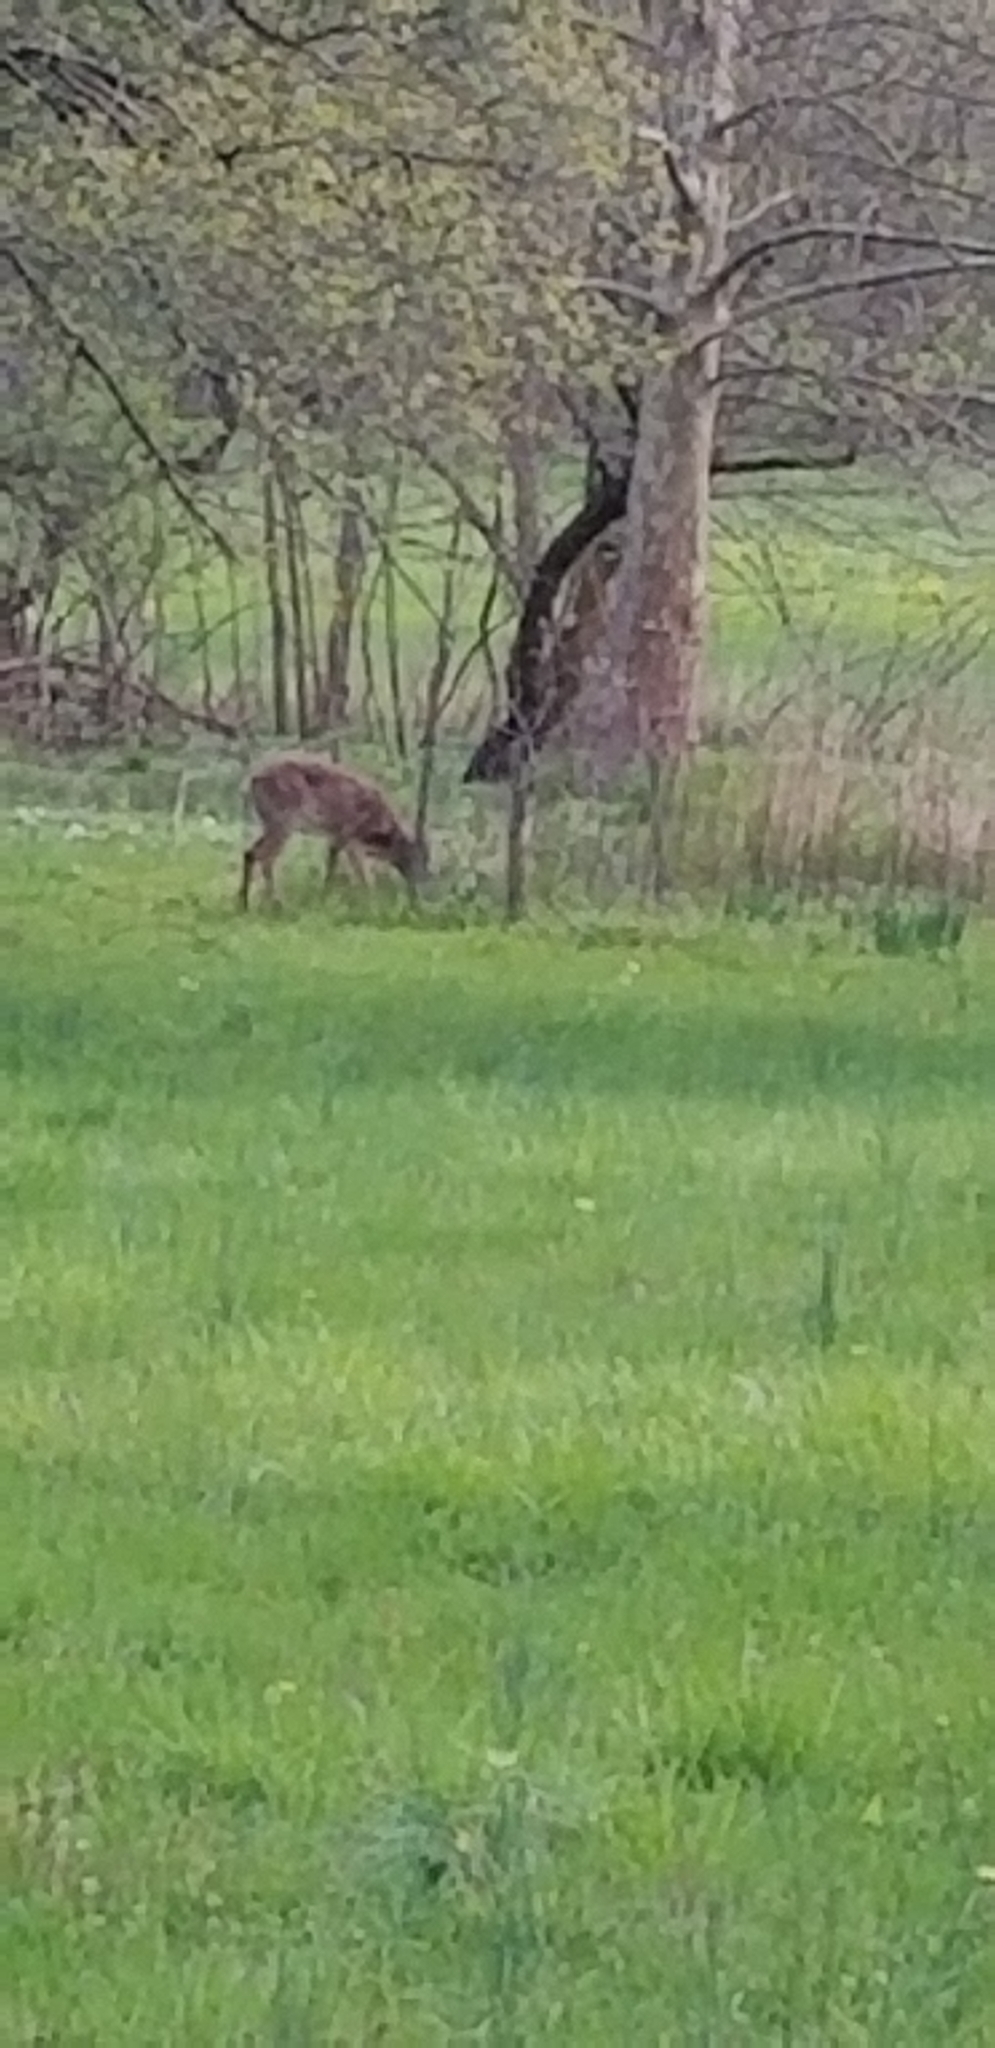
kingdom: Animalia
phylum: Chordata
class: Mammalia
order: Artiodactyla
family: Cervidae
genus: Odocoileus
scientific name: Odocoileus virginianus
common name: White-tailed deer
